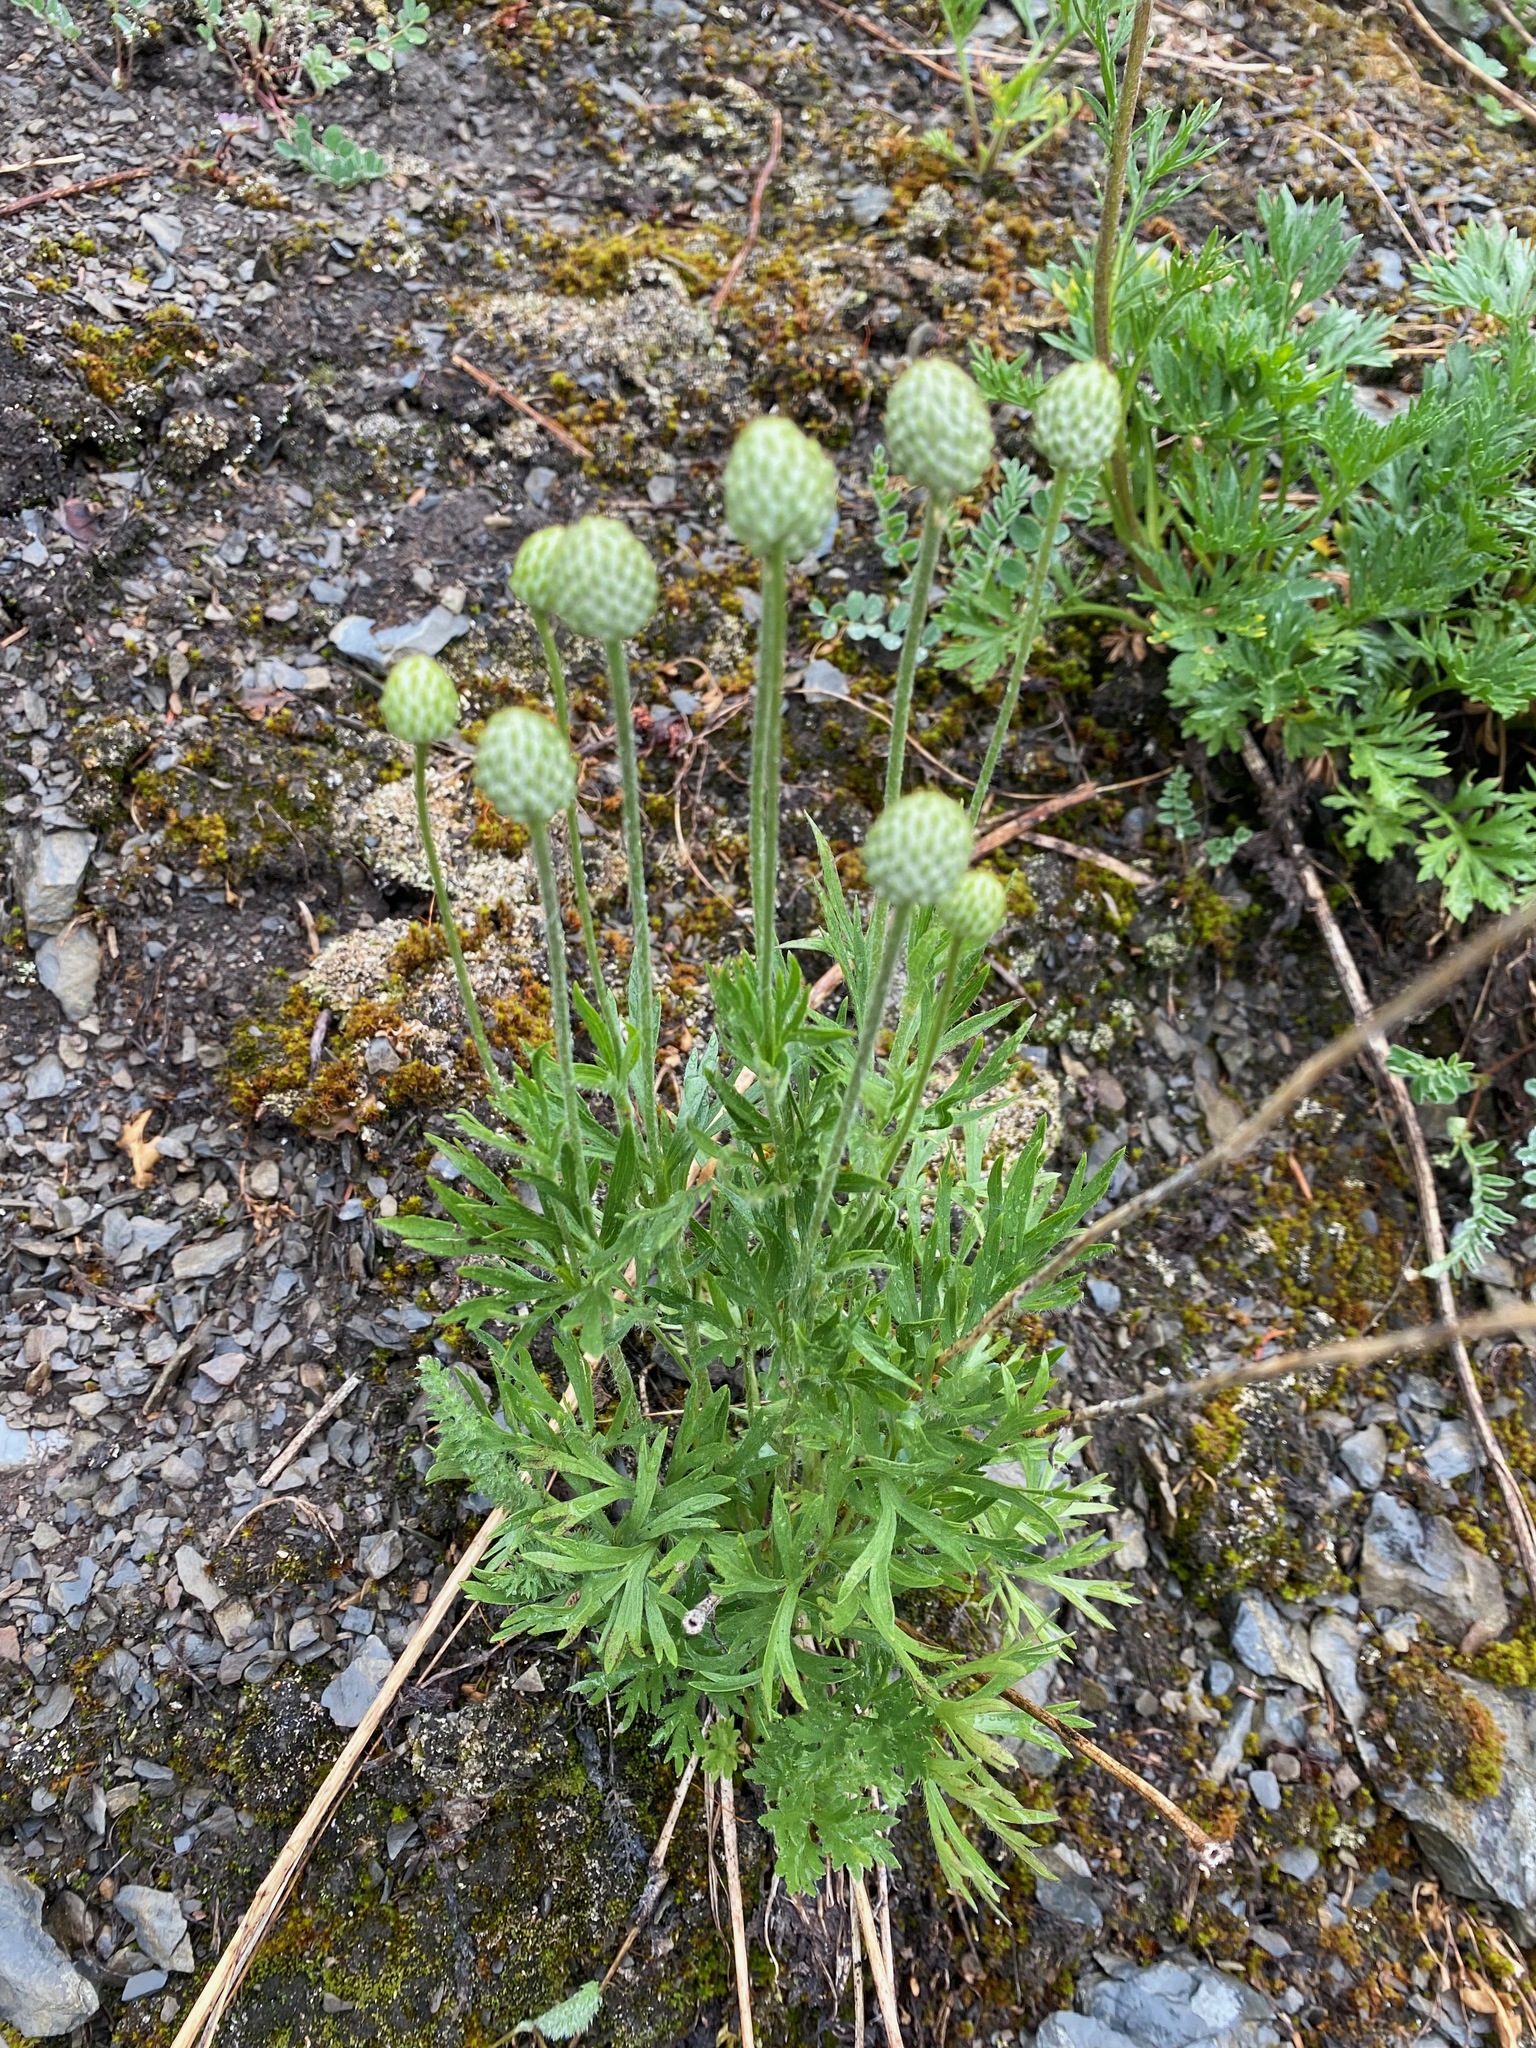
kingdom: Plantae
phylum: Tracheophyta
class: Magnoliopsida
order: Ranunculales
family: Ranunculaceae
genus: Anemone
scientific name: Anemone multifida
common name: Bird's-foot anemone
